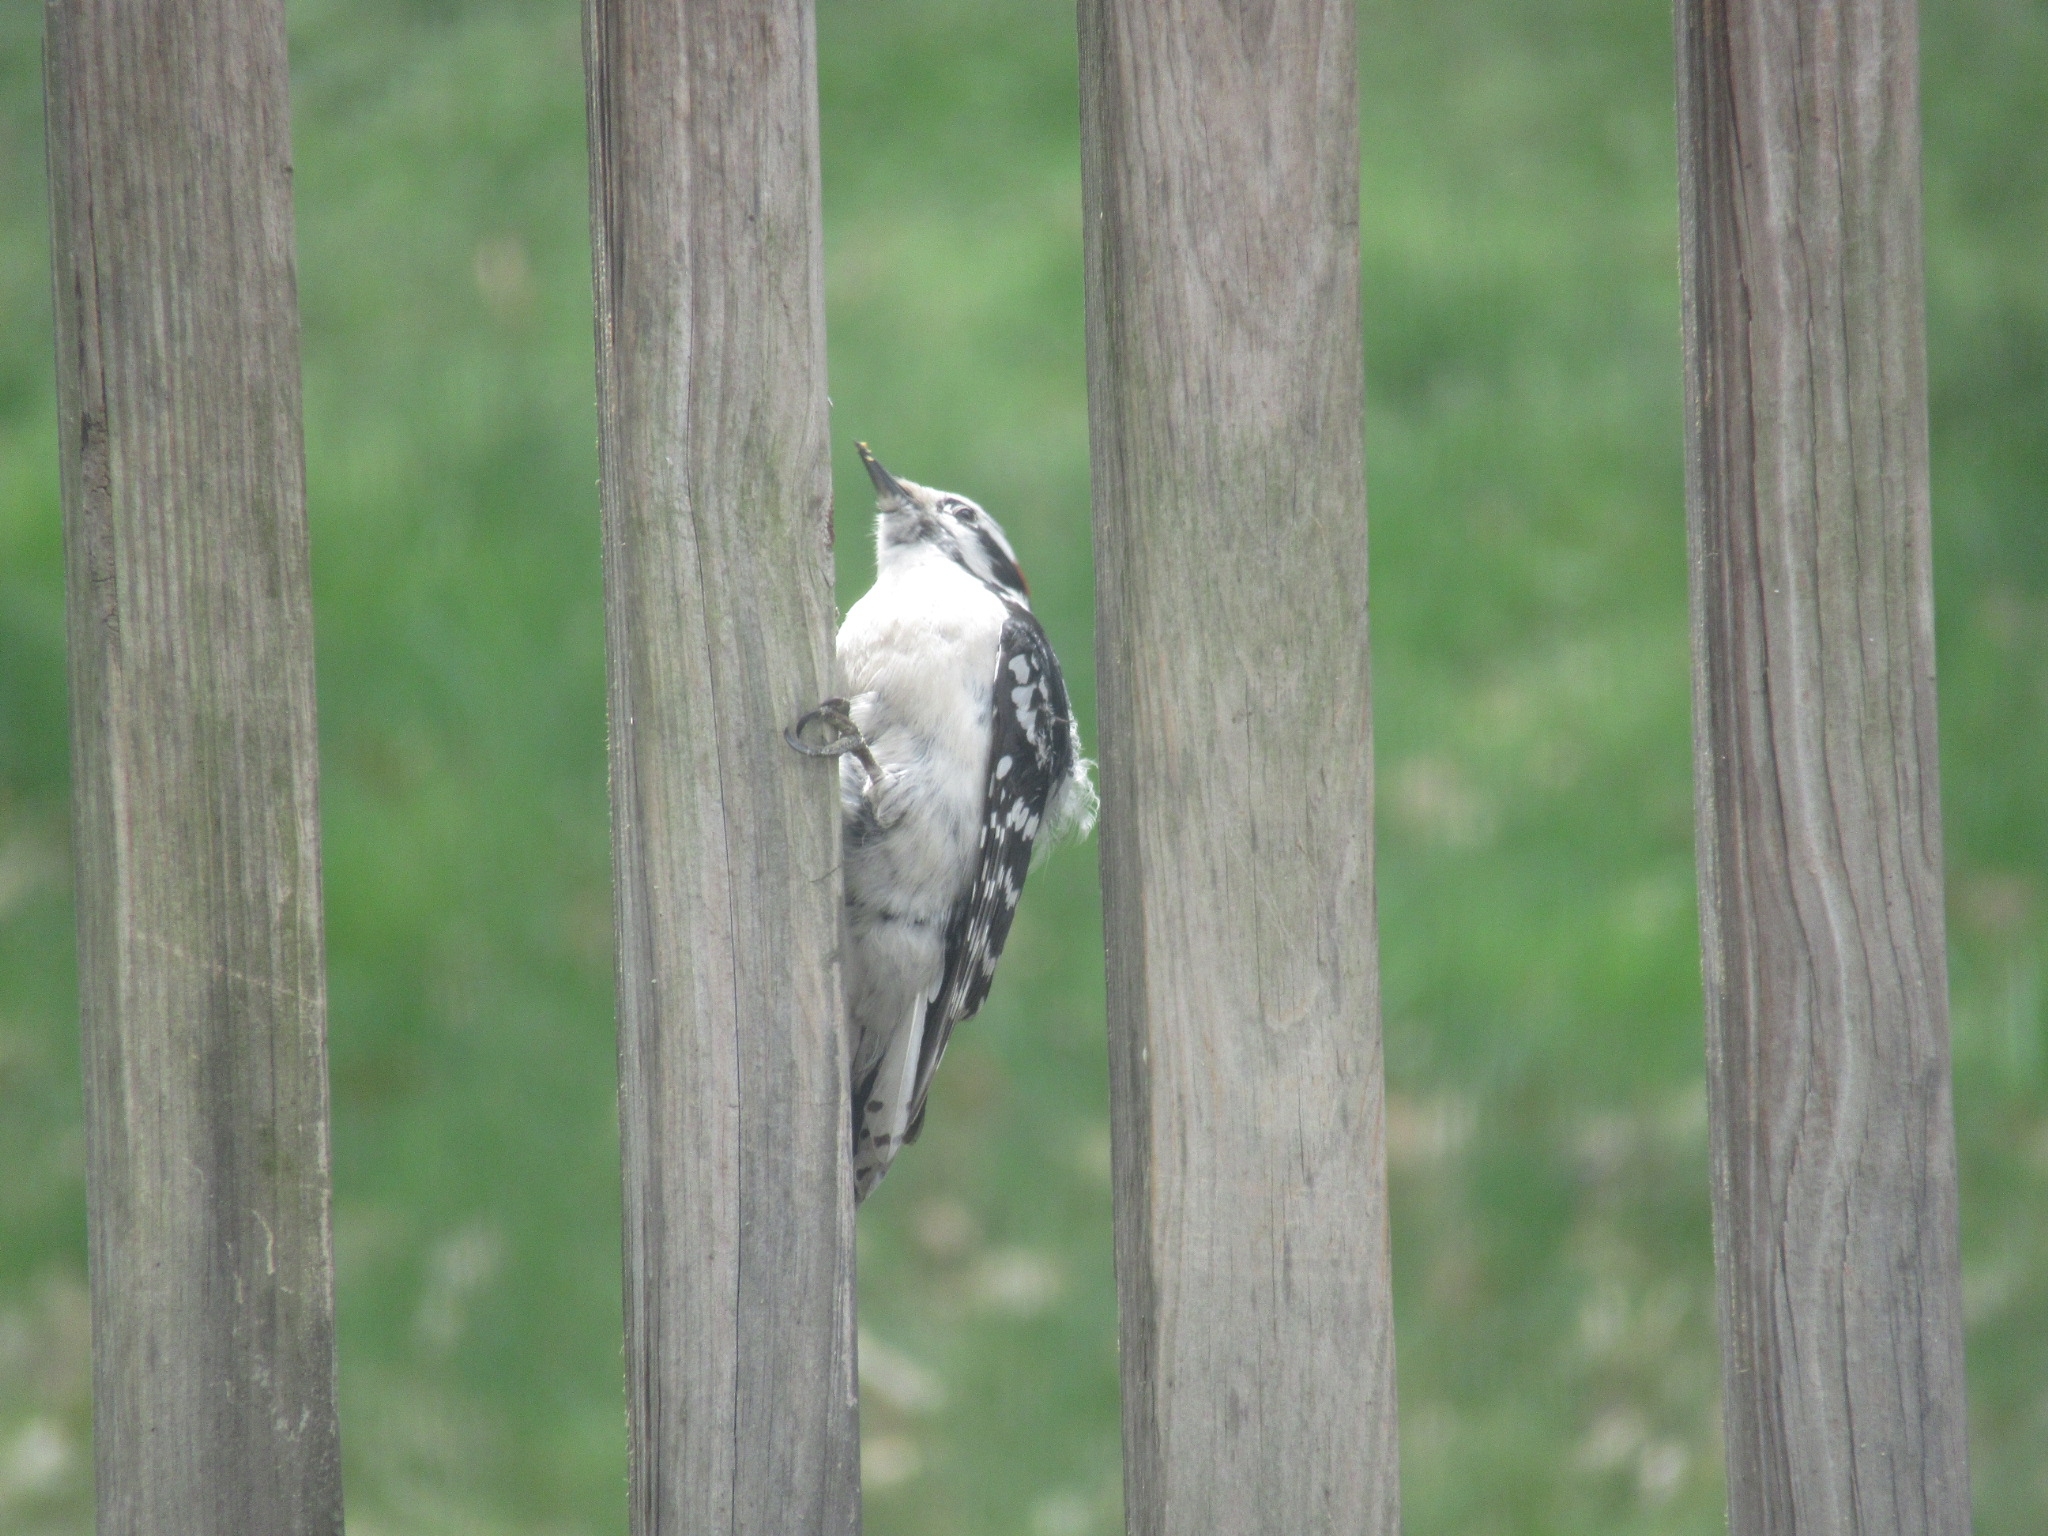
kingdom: Animalia
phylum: Chordata
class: Aves
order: Piciformes
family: Picidae
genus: Dryobates
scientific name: Dryobates pubescens
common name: Downy woodpecker
